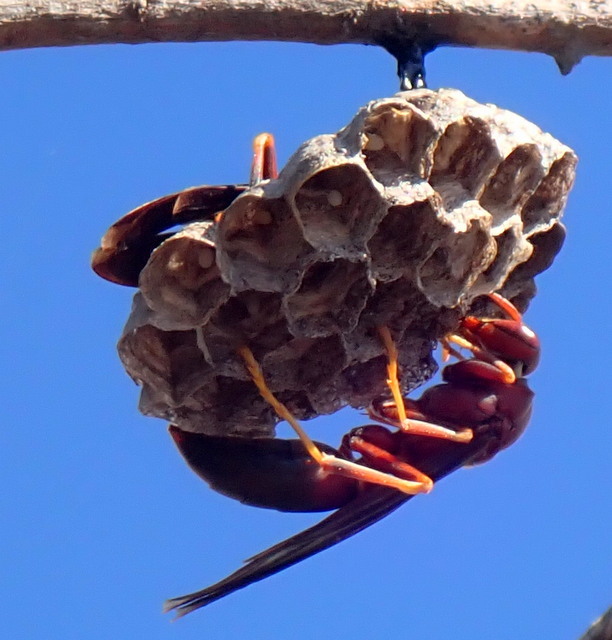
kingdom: Animalia
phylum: Arthropoda
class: Insecta
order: Hymenoptera
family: Eumenidae
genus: Polistes
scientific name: Polistes annularis
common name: Ringed paper wasp
